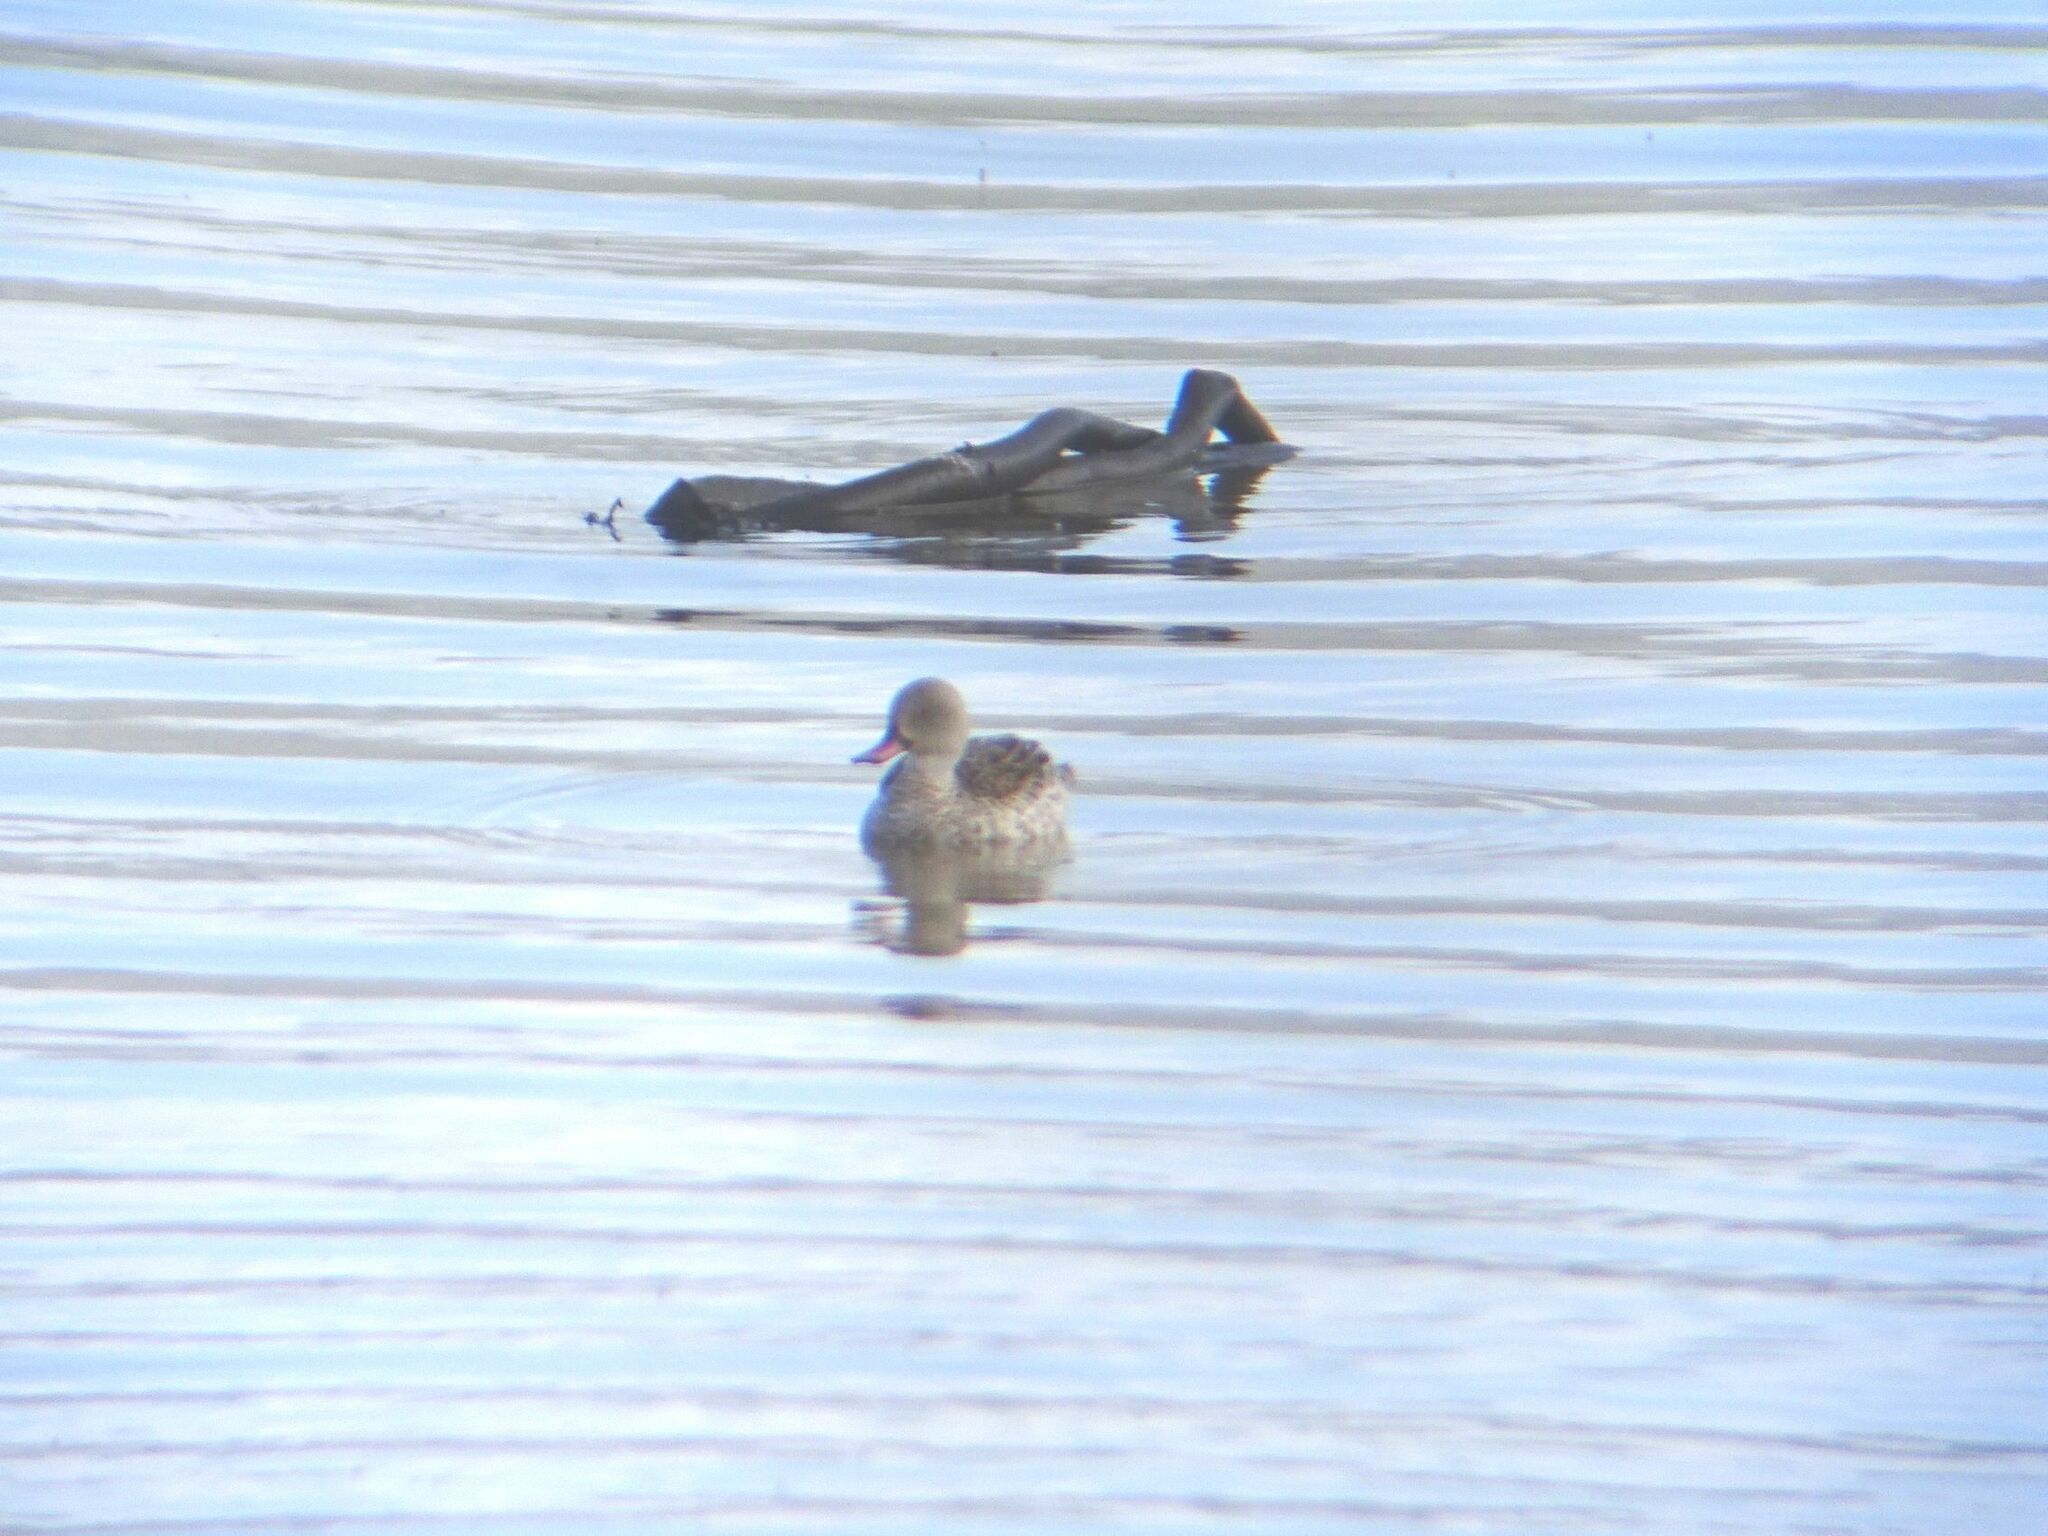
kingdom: Animalia
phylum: Chordata
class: Aves
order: Anseriformes
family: Anatidae
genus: Anas
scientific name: Anas capensis
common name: Cape teal
